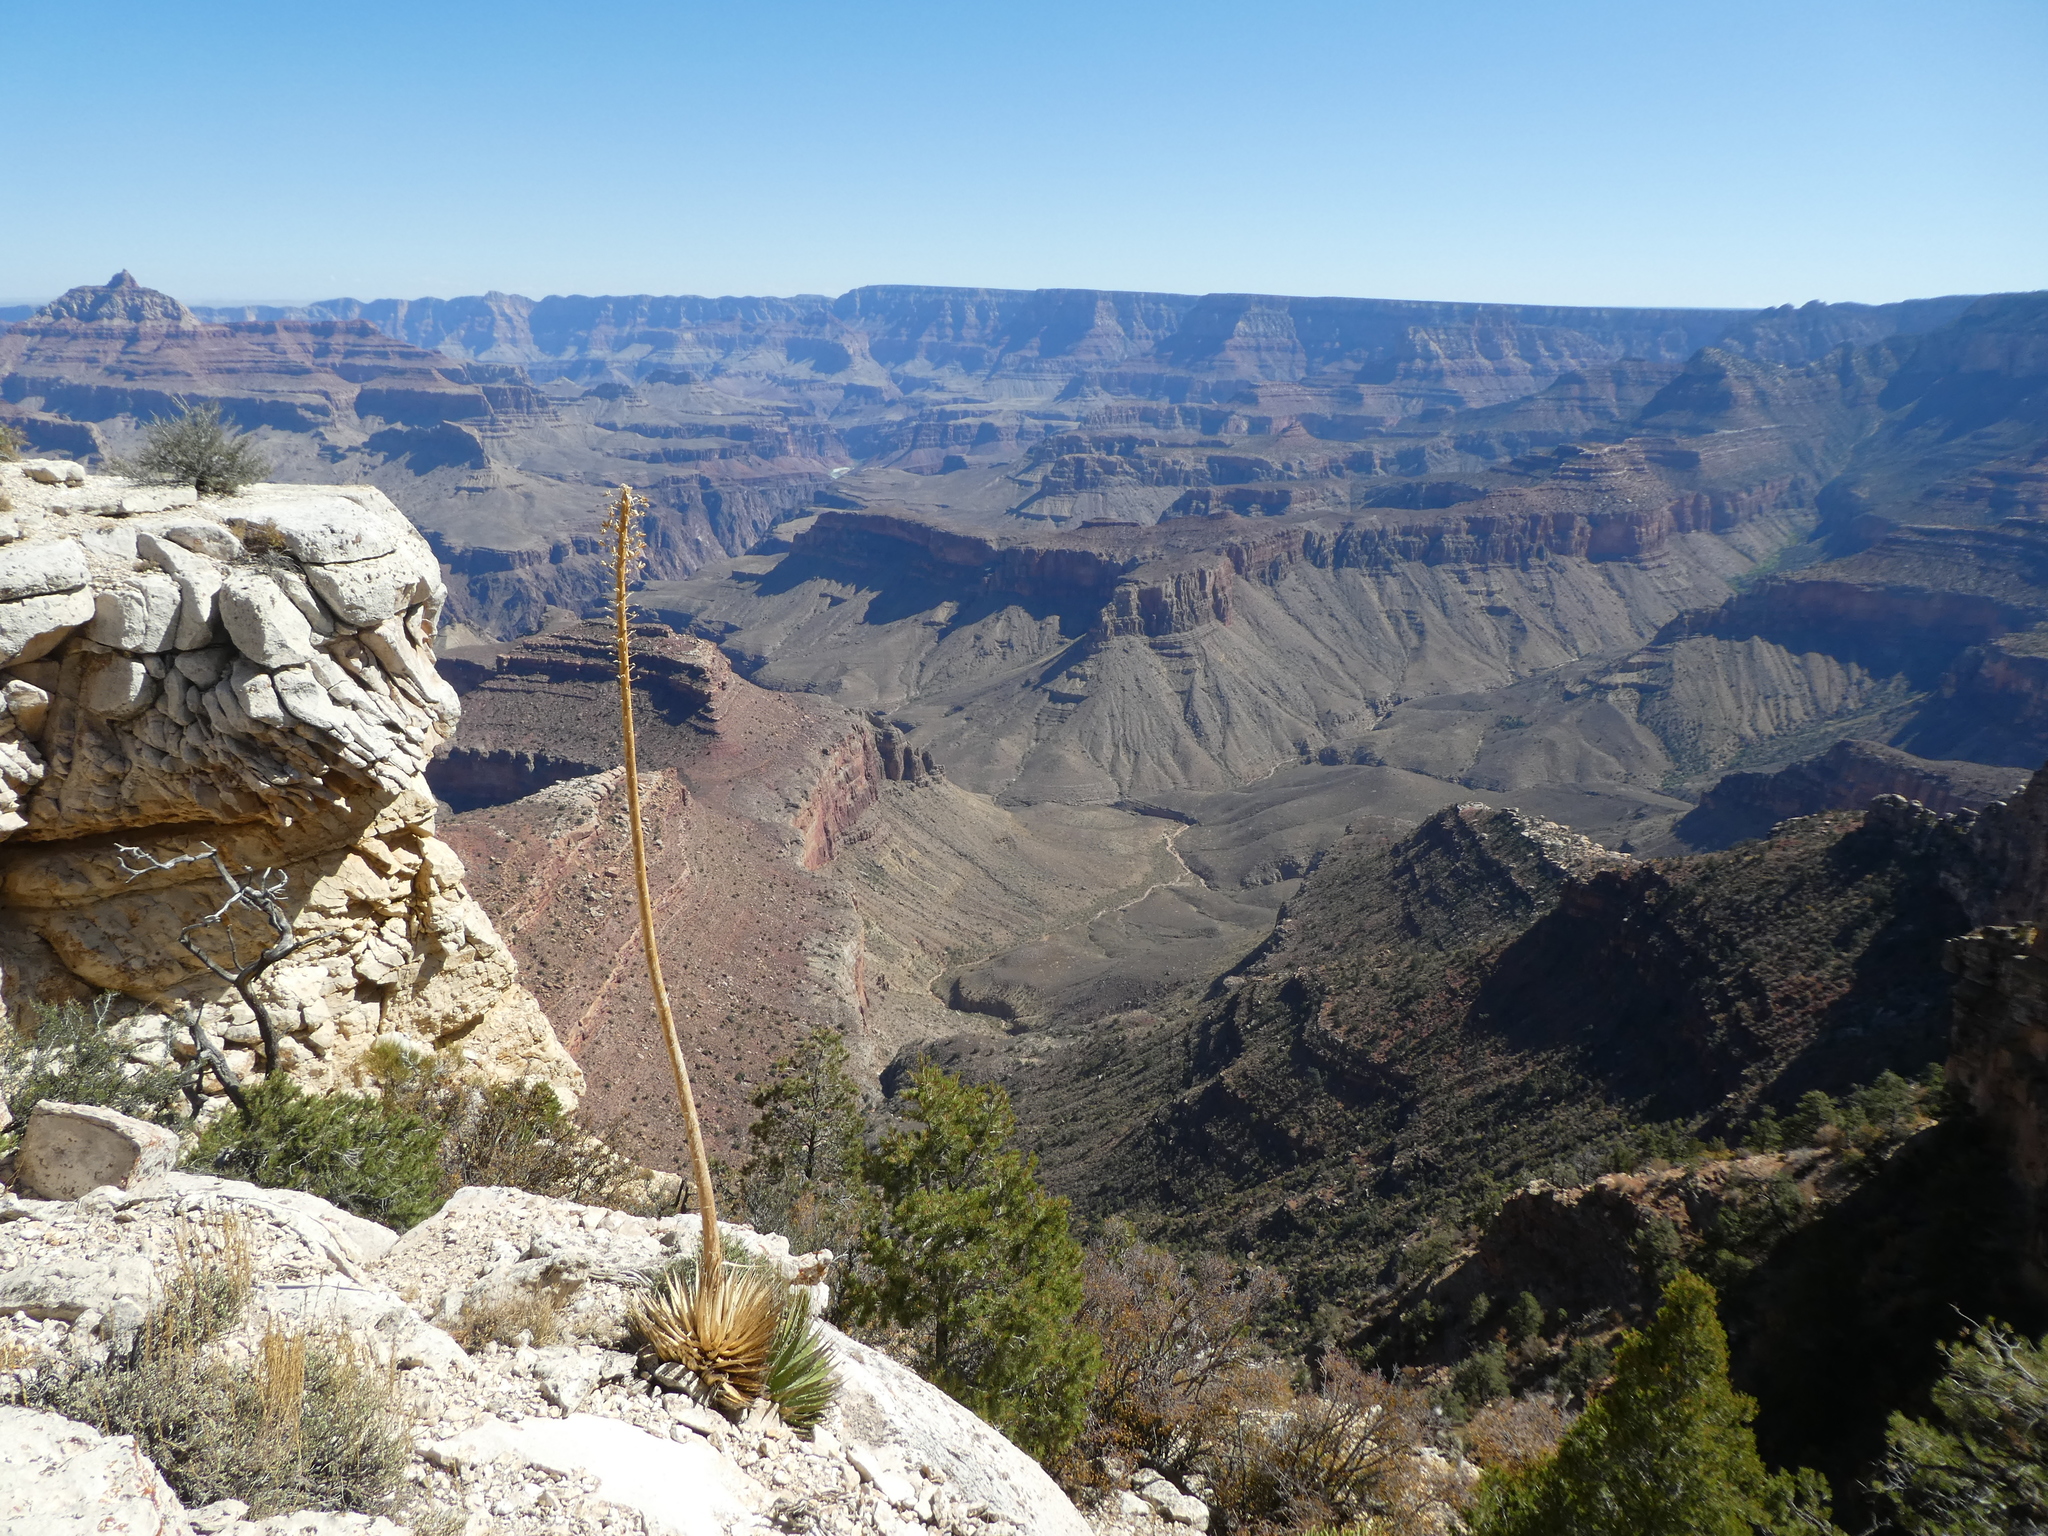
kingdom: Plantae
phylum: Tracheophyta
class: Liliopsida
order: Asparagales
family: Asparagaceae
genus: Agave
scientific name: Agave utahensis
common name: Utah agave
